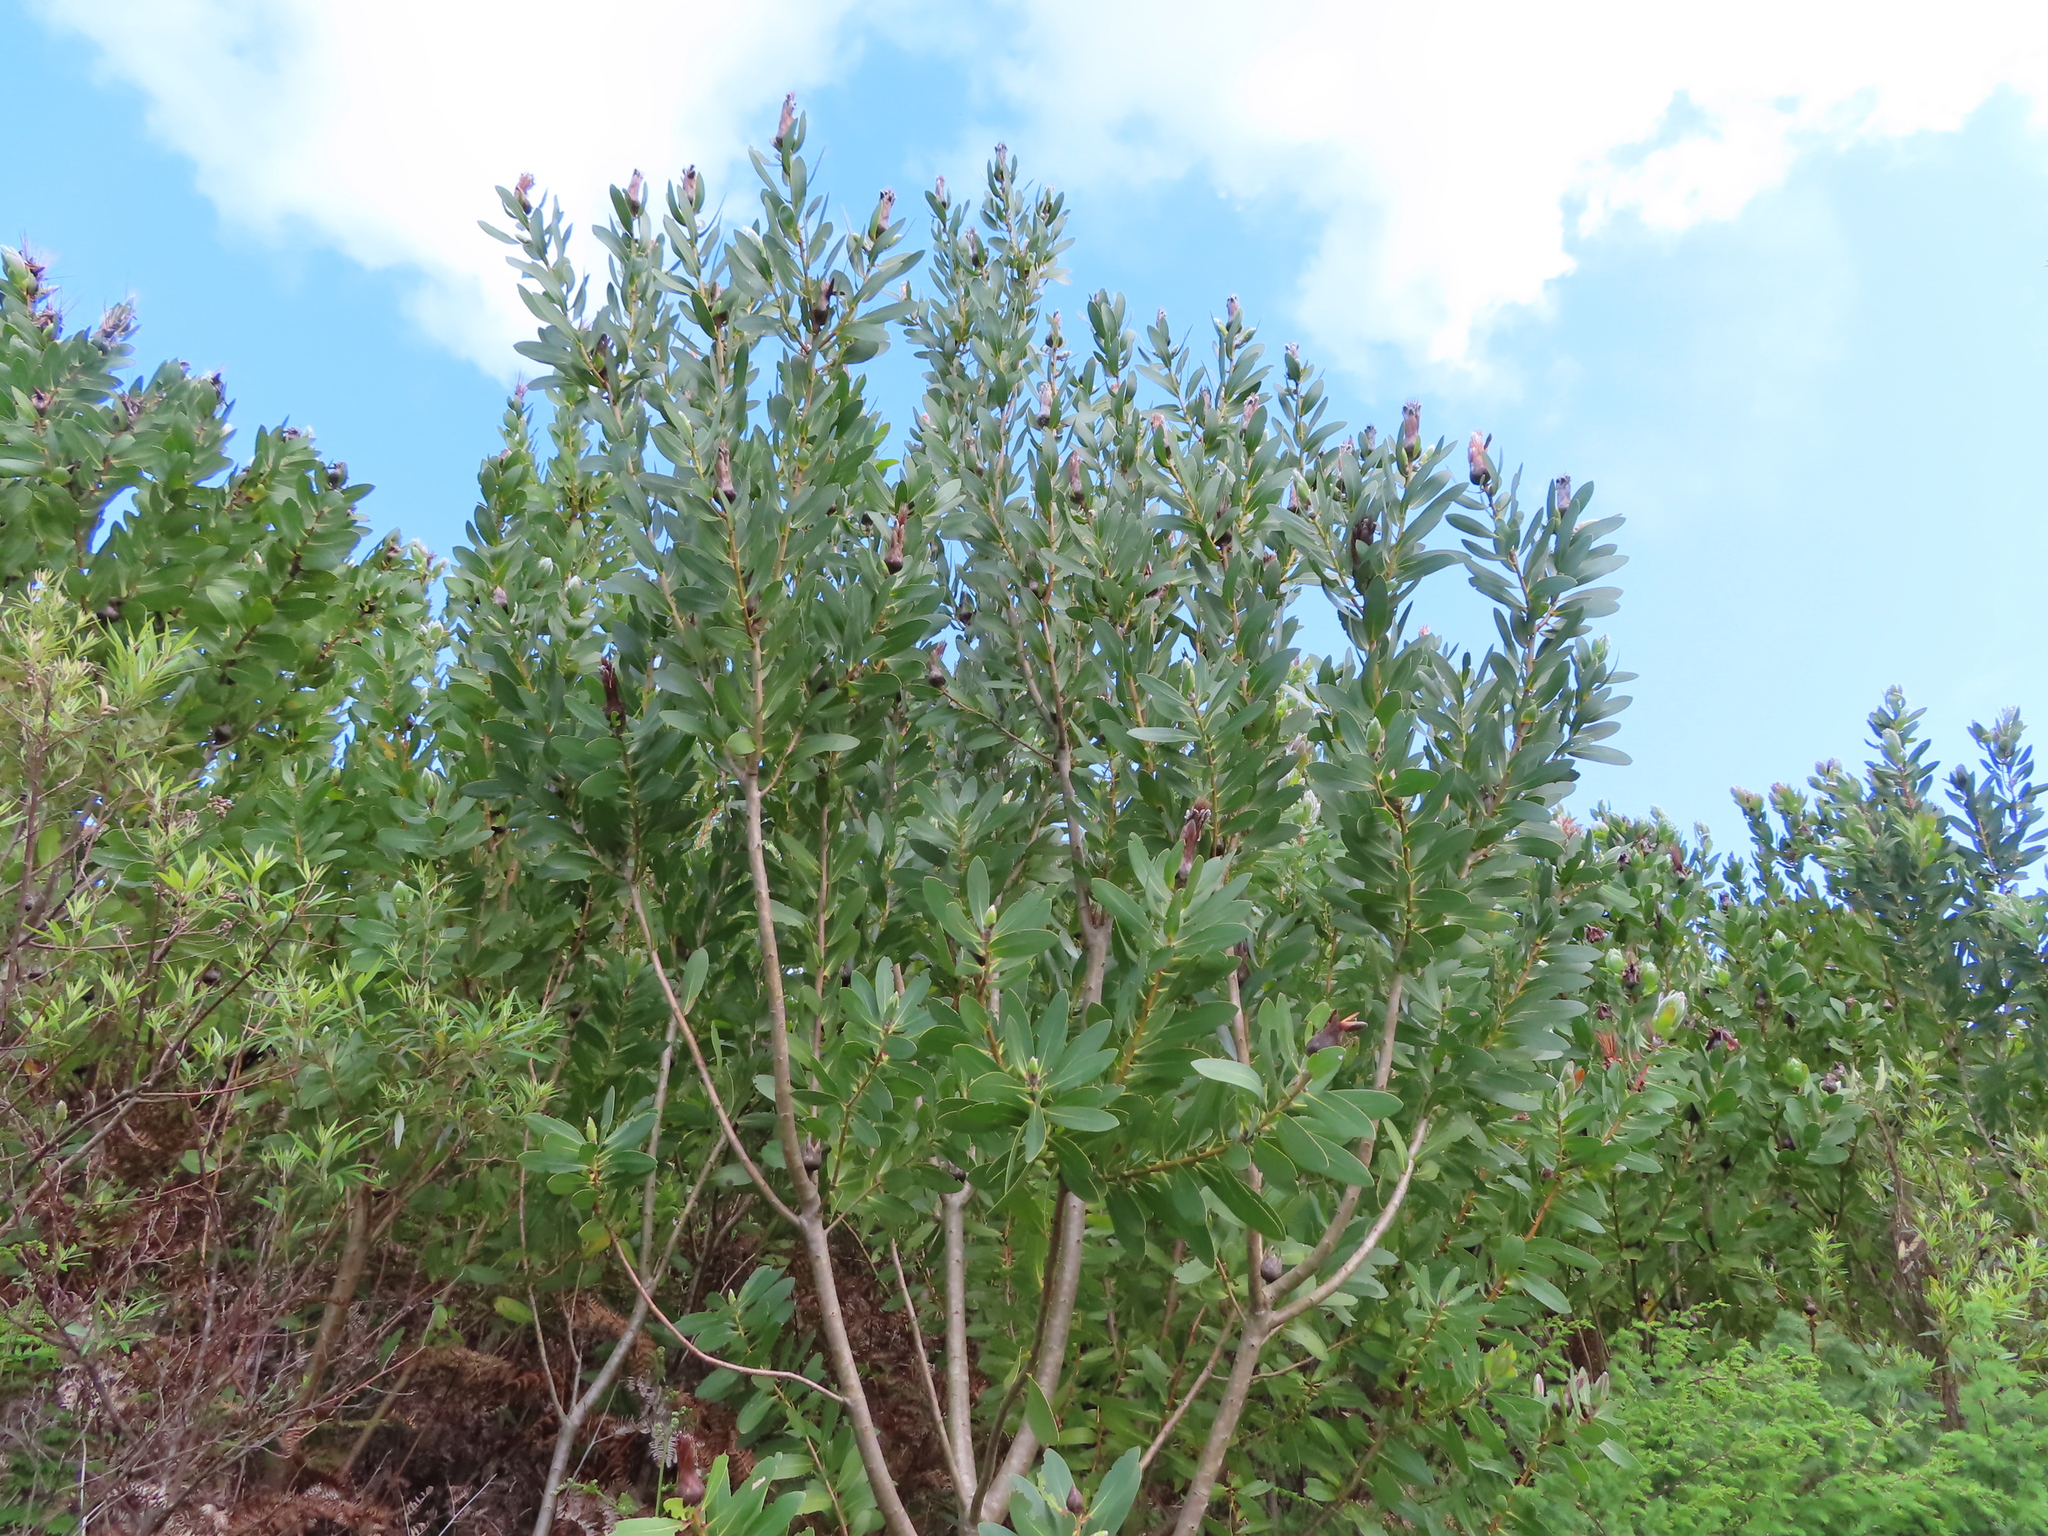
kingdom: Plantae
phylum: Tracheophyta
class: Magnoliopsida
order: Proteales
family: Proteaceae
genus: Protea
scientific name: Protea mundii
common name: Forest sugarbush
